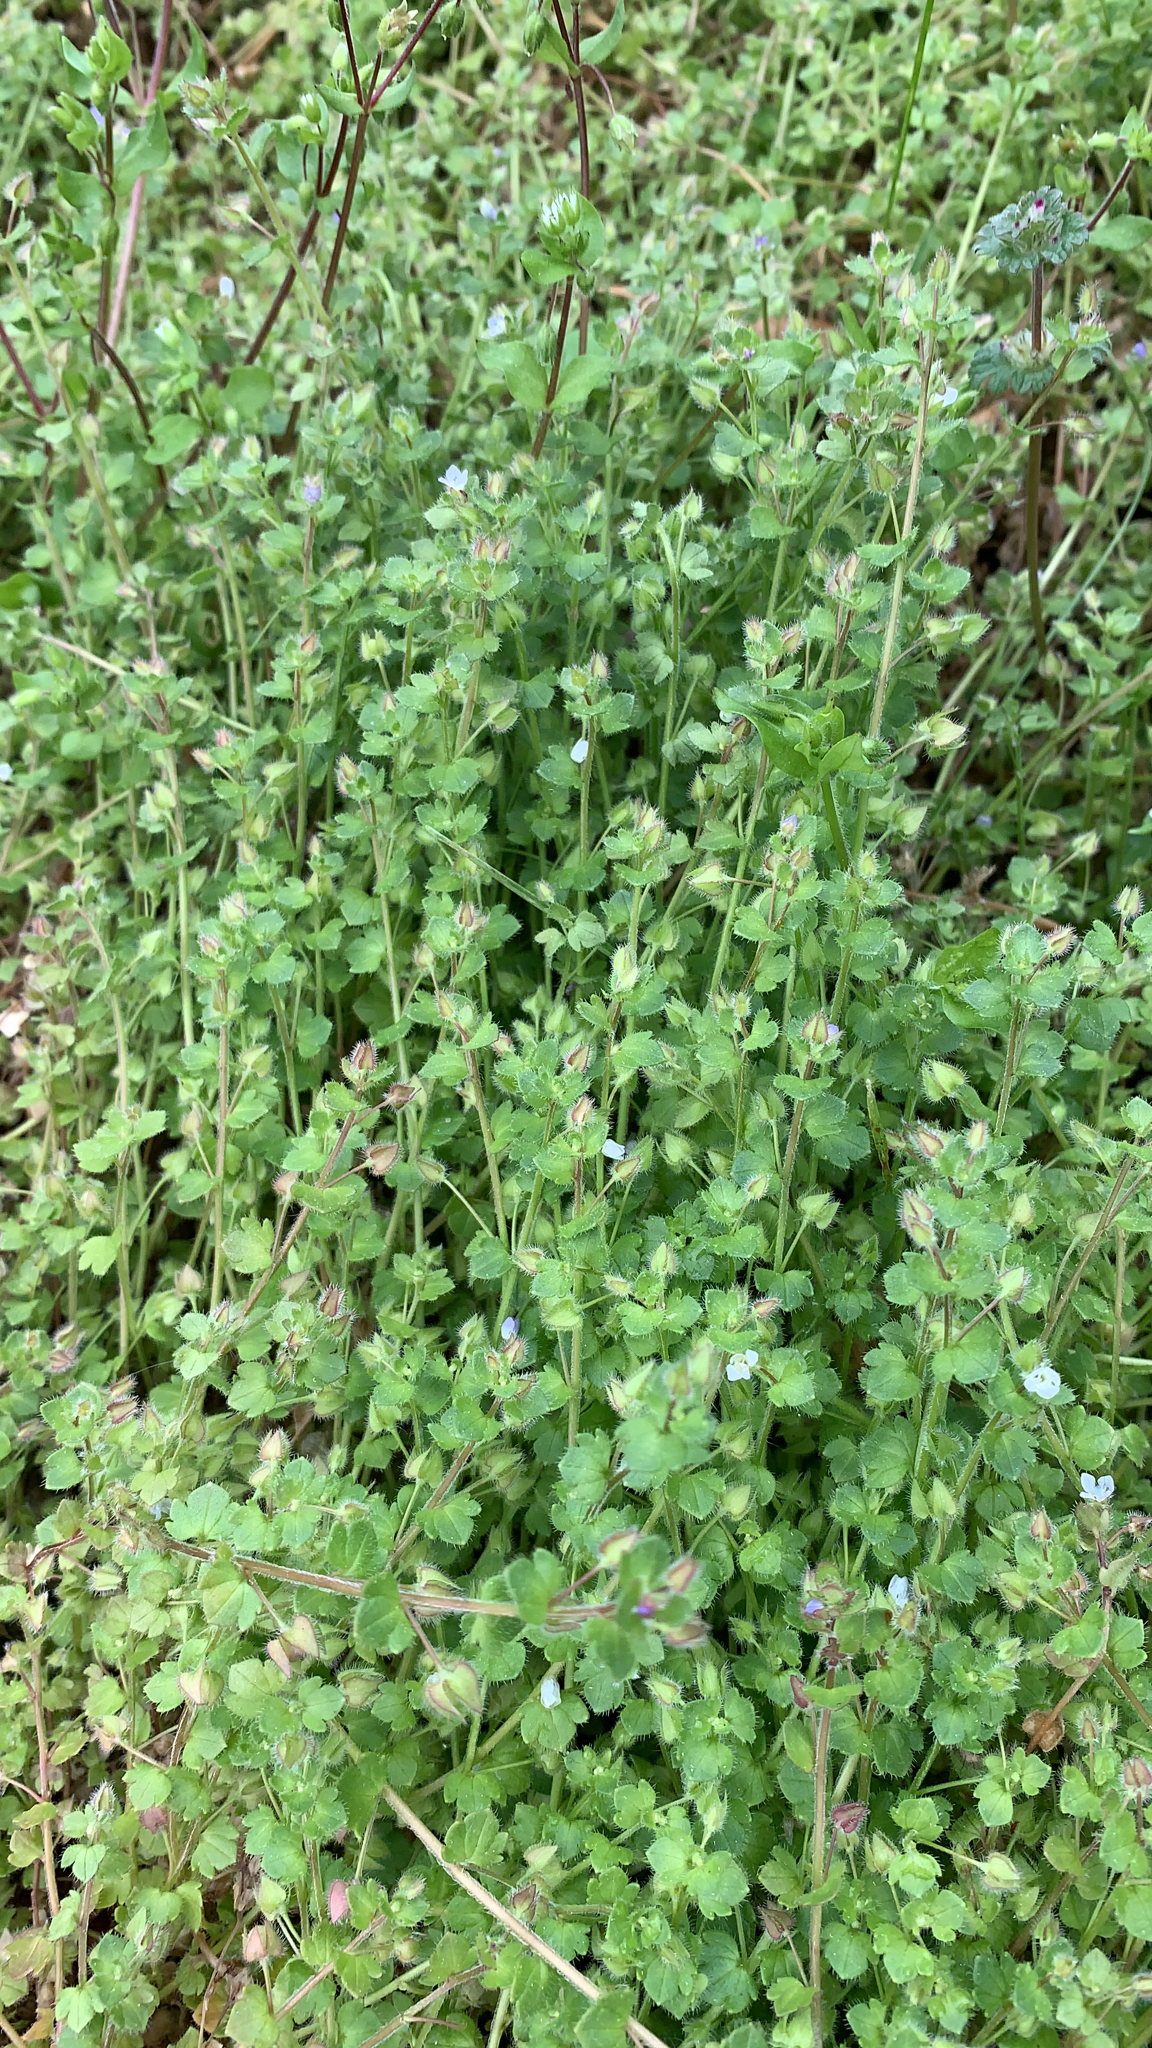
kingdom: Plantae
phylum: Tracheophyta
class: Magnoliopsida
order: Lamiales
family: Plantaginaceae
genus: Veronica
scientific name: Veronica hederifolia
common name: Ivy-leaved speedwell
